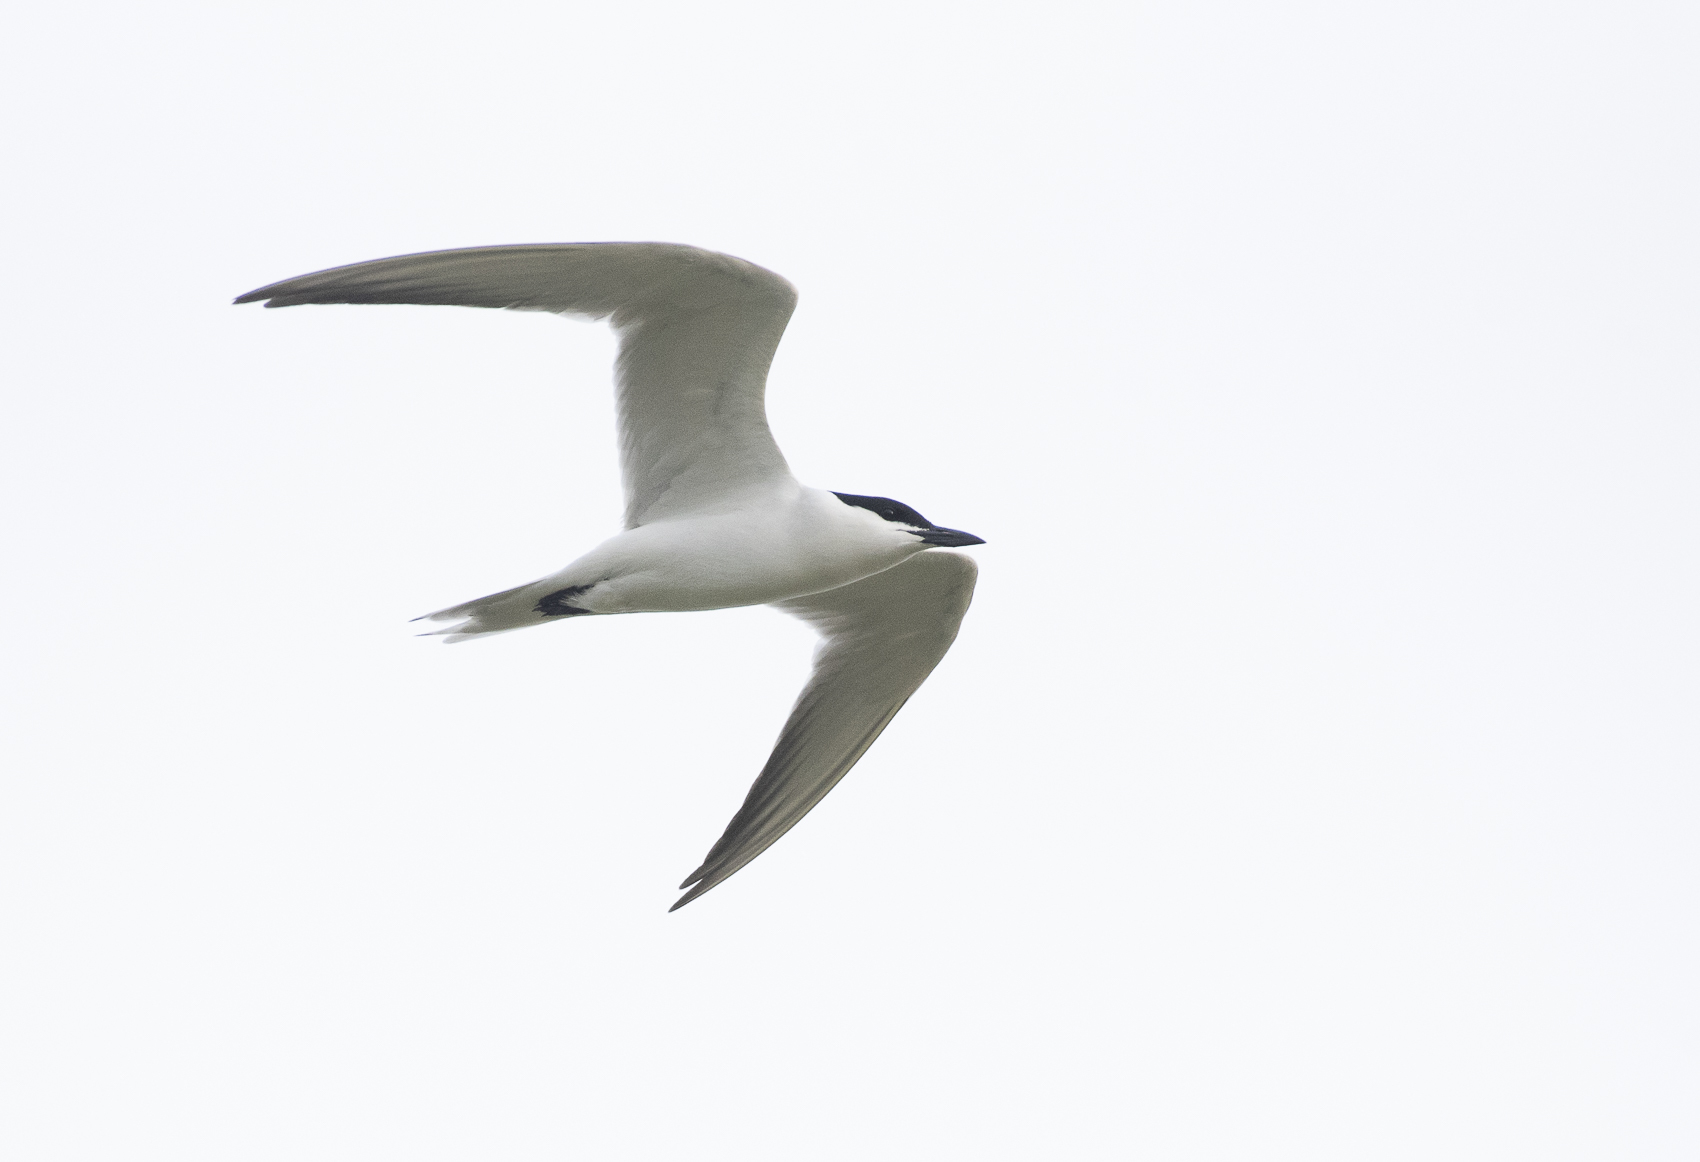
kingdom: Animalia
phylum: Chordata
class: Aves
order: Charadriiformes
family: Laridae
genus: Gelochelidon
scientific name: Gelochelidon nilotica
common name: Gull-billed tern
